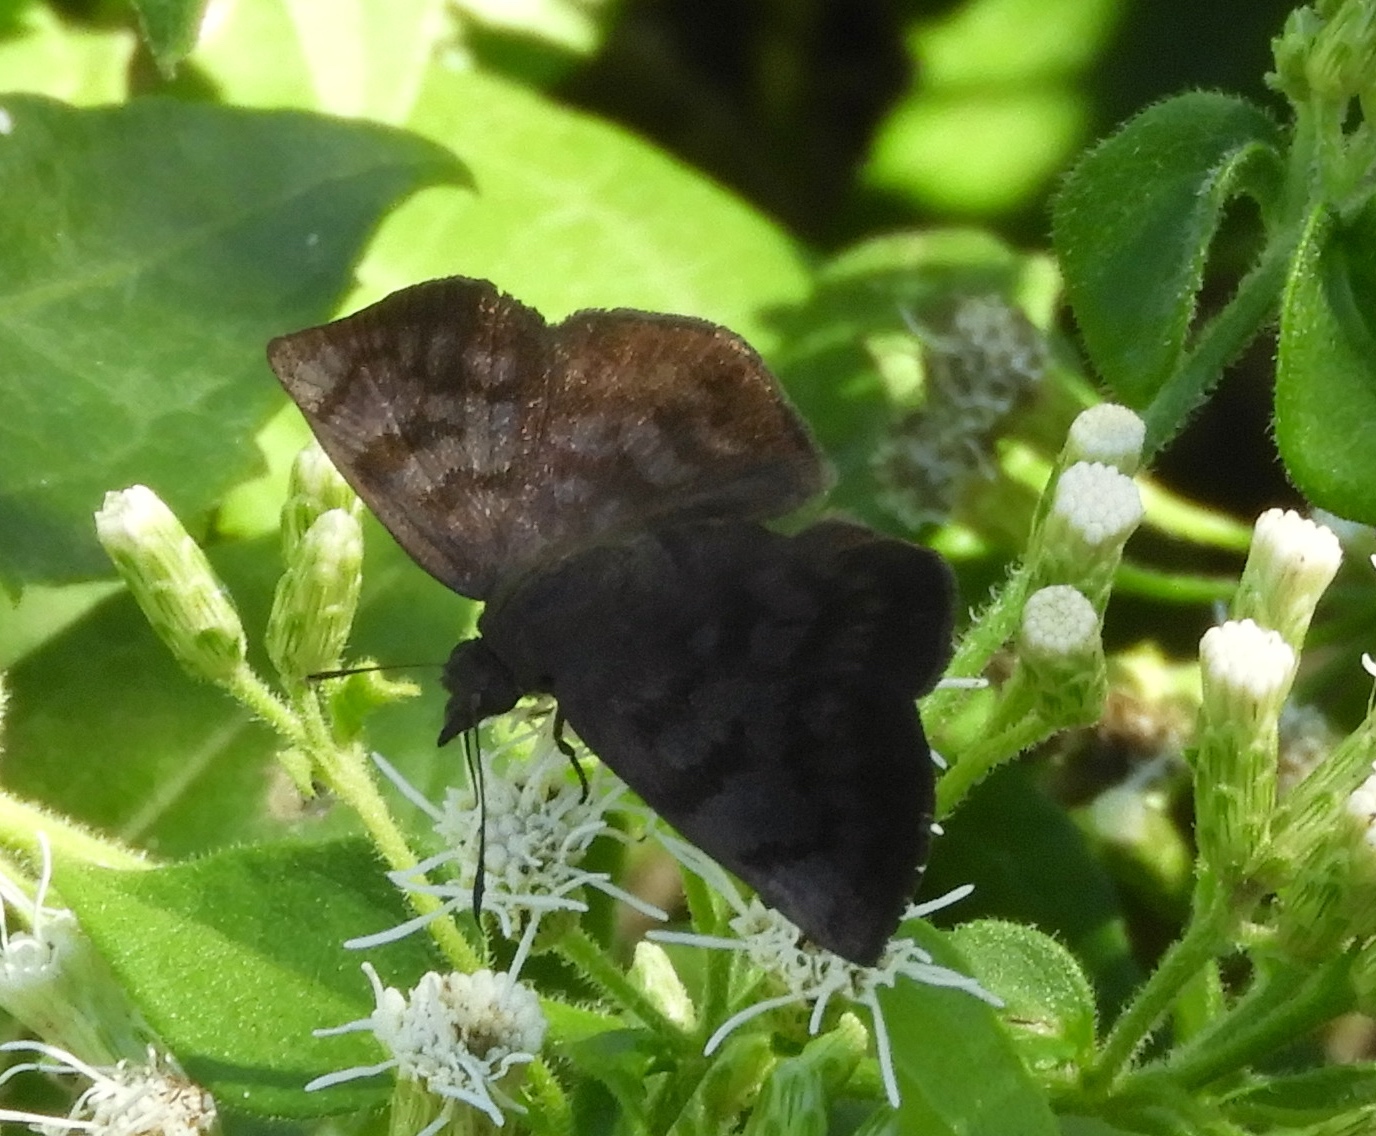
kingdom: Animalia
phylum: Arthropoda
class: Insecta
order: Lepidoptera
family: Hesperiidae
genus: Pellicia
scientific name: Pellicia costimacula
